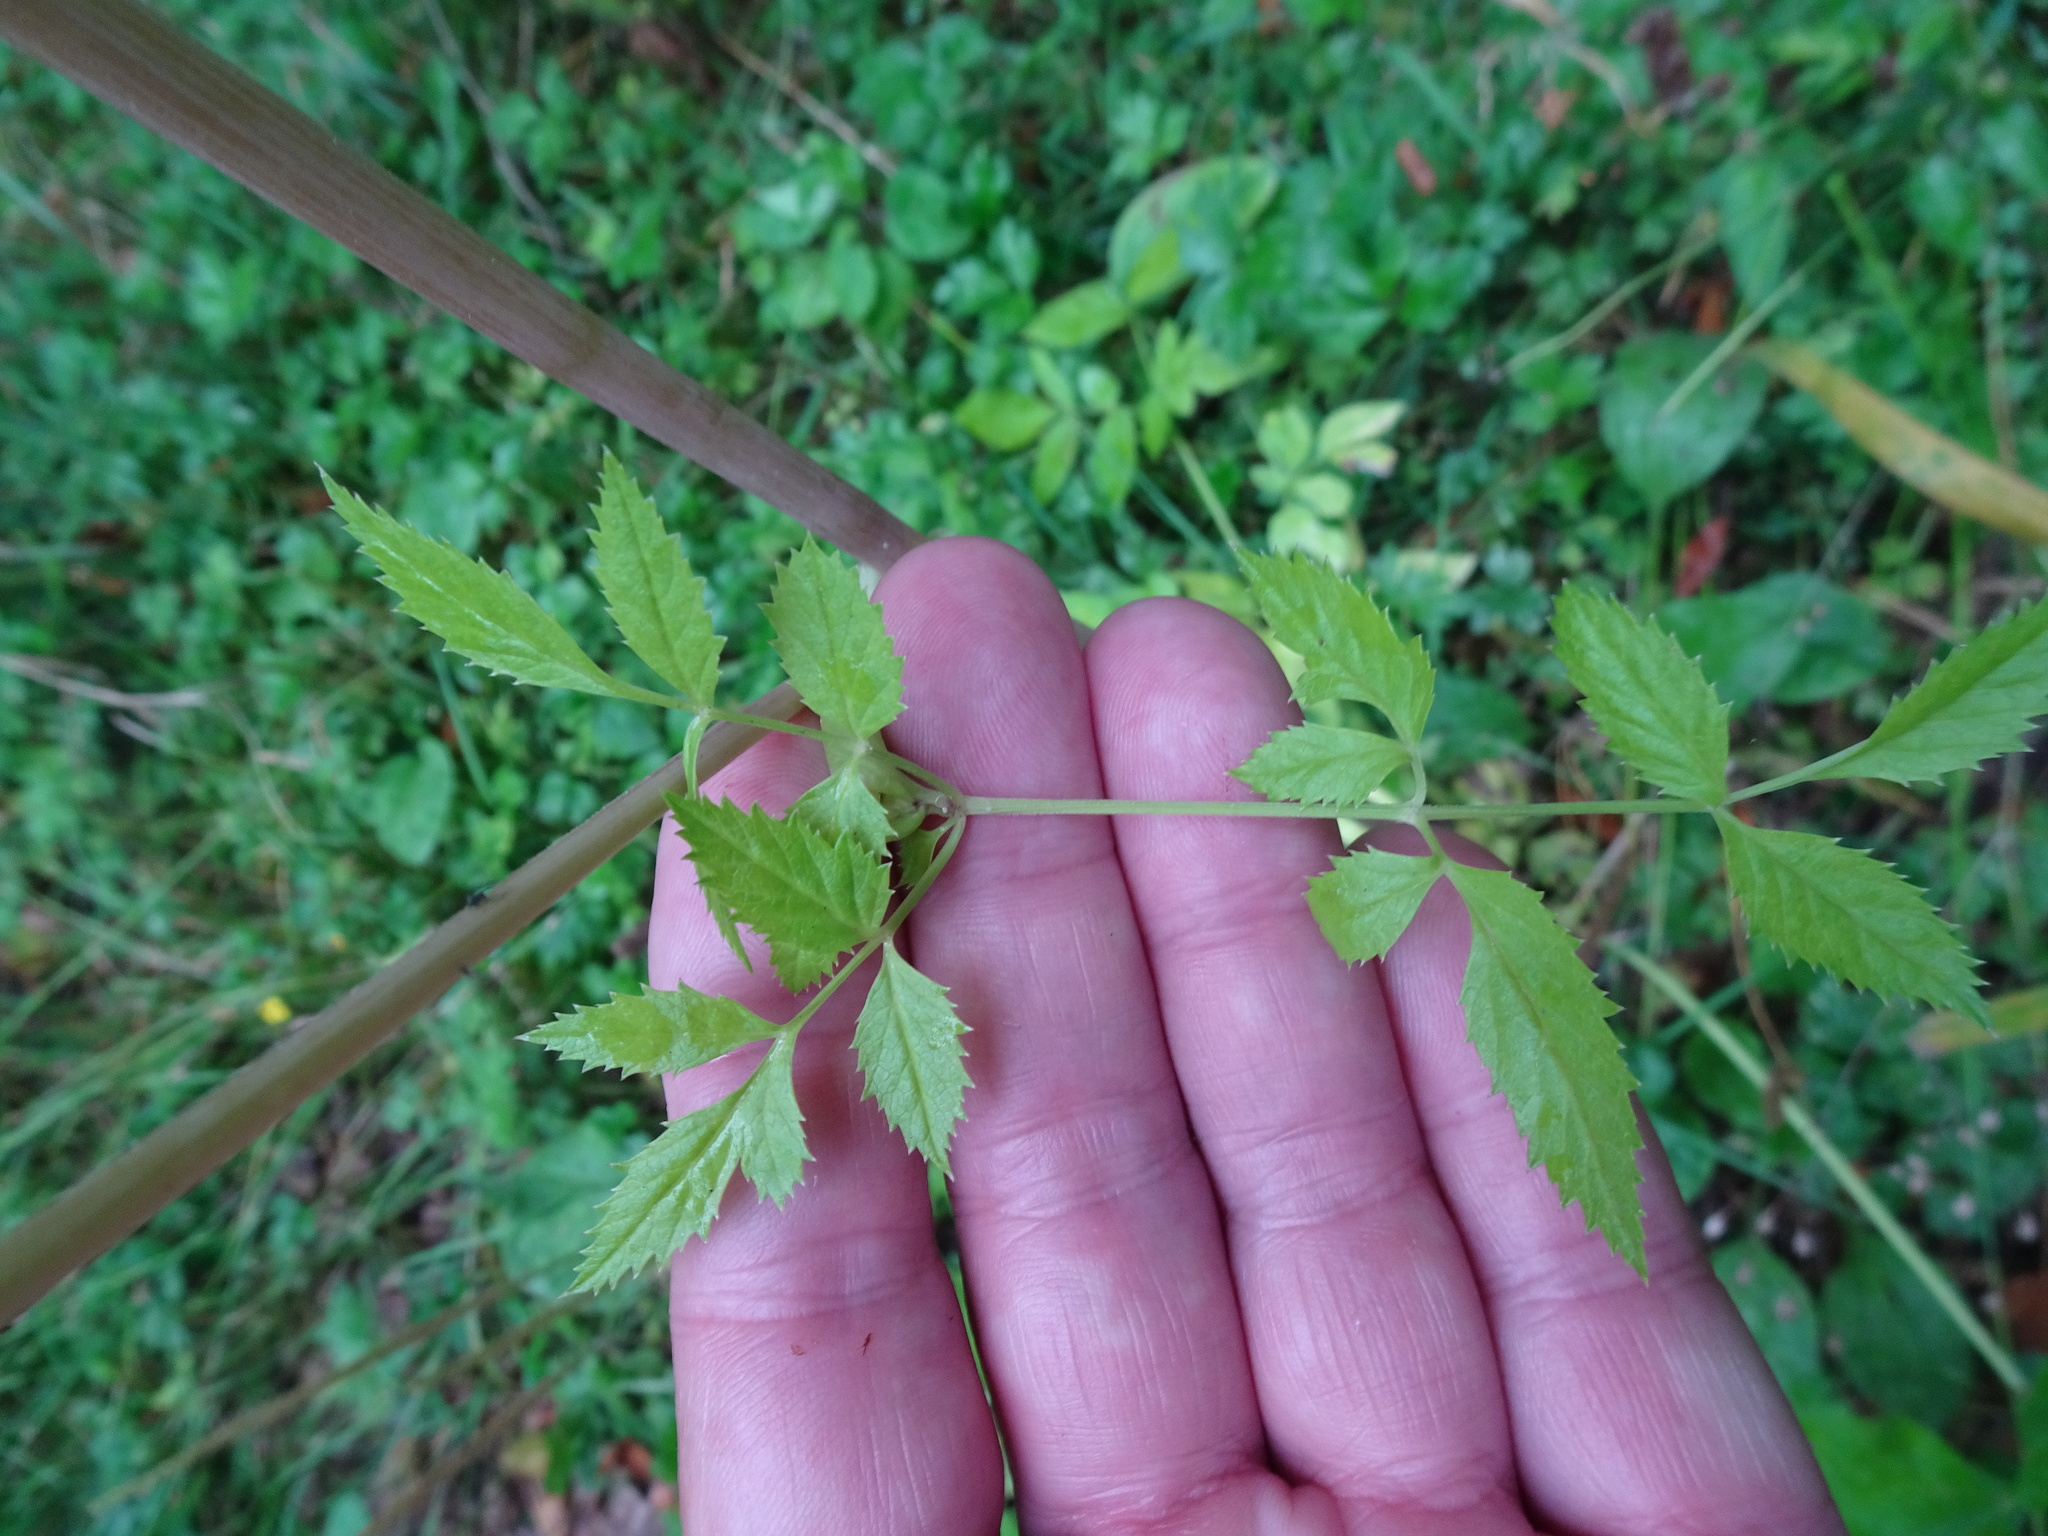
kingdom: Plantae
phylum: Tracheophyta
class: Magnoliopsida
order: Apiales
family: Apiaceae
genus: Angelica
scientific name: Angelica sylvestris
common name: Wild angelica
